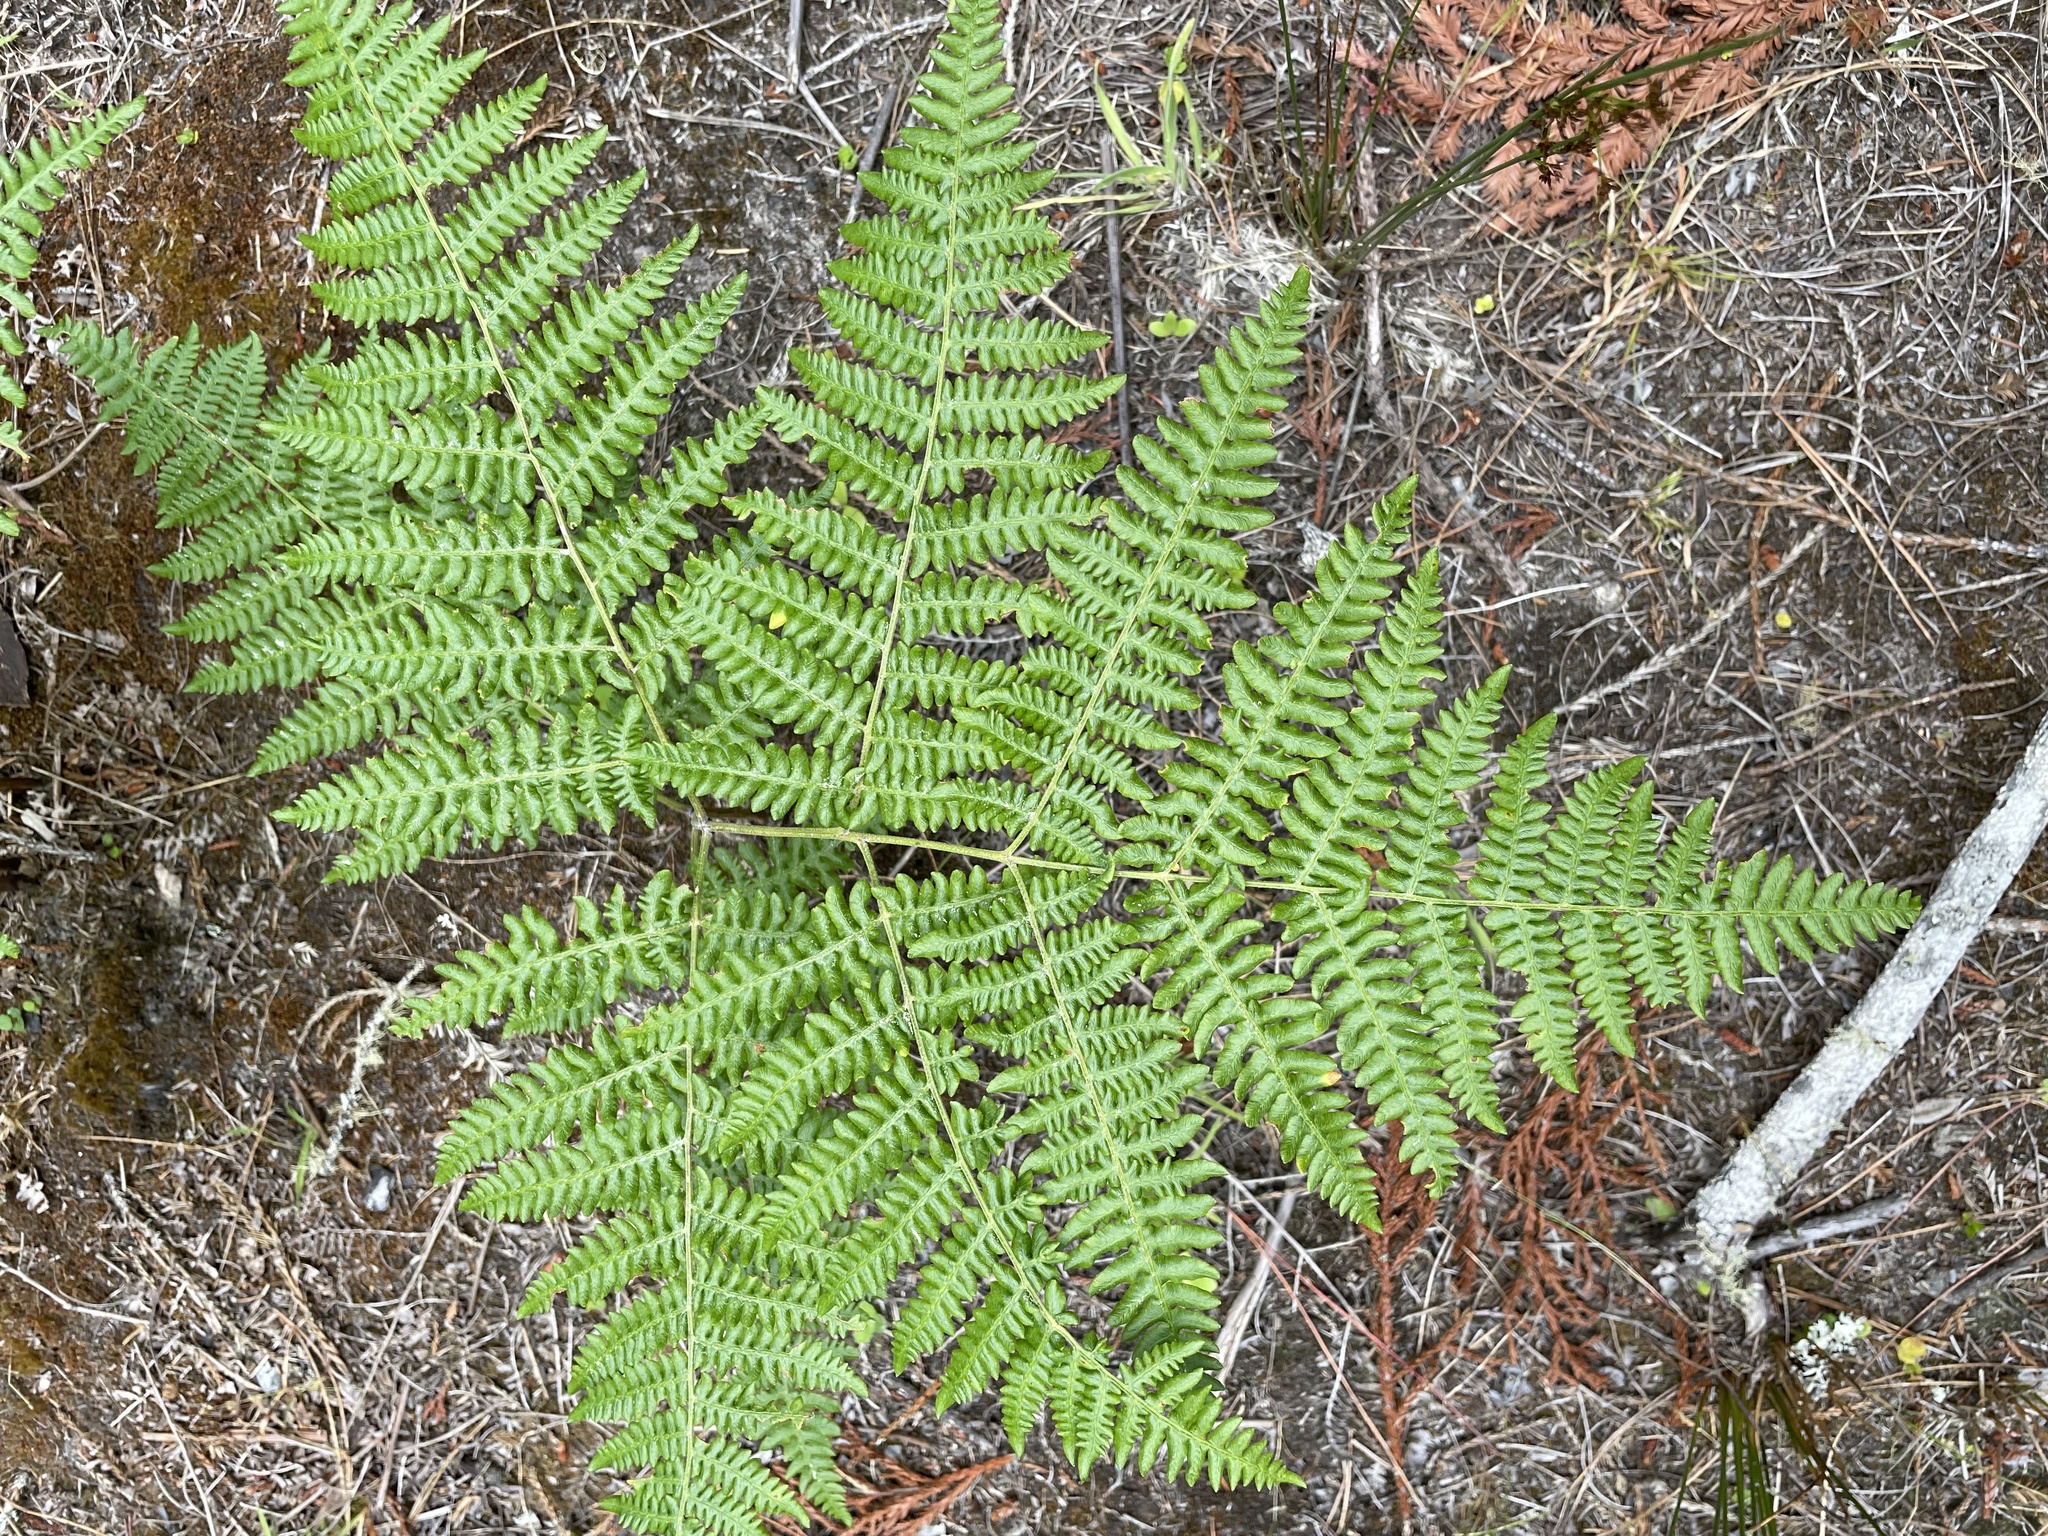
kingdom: Plantae
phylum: Tracheophyta
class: Polypodiopsida
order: Polypodiales
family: Dennstaedtiaceae
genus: Pteridium
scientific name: Pteridium aquilinum
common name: Bracken
